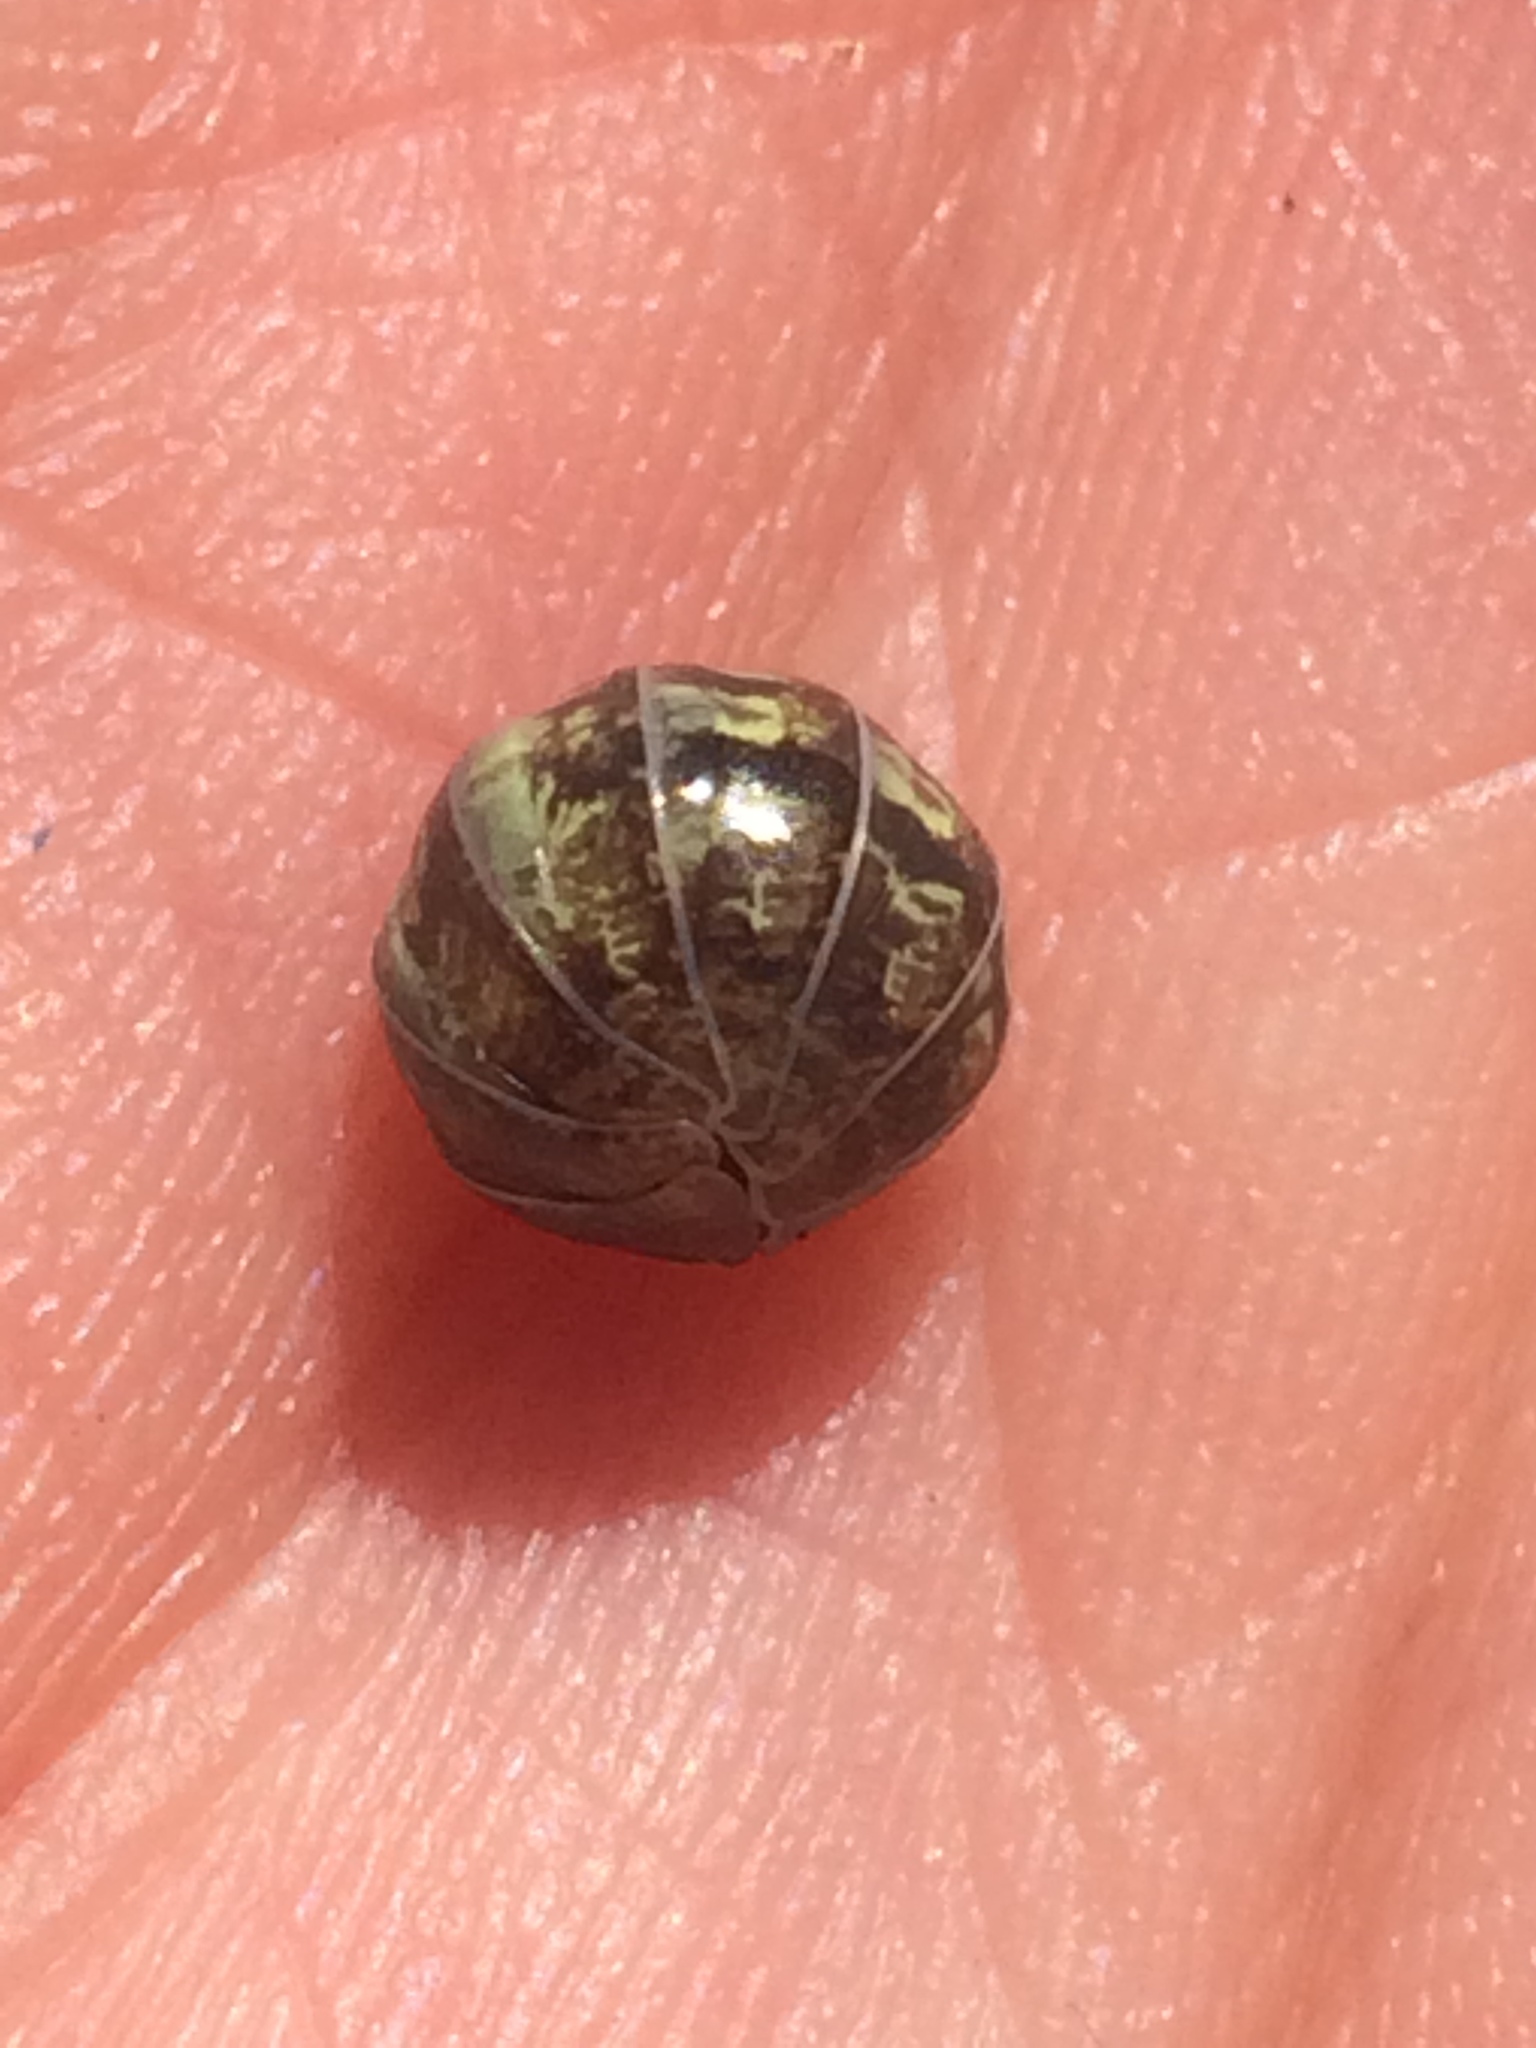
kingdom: Animalia
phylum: Arthropoda
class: Malacostraca
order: Isopoda
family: Armadillidiidae
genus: Armadillidium
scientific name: Armadillidium vulgare
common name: Common pill woodlouse
